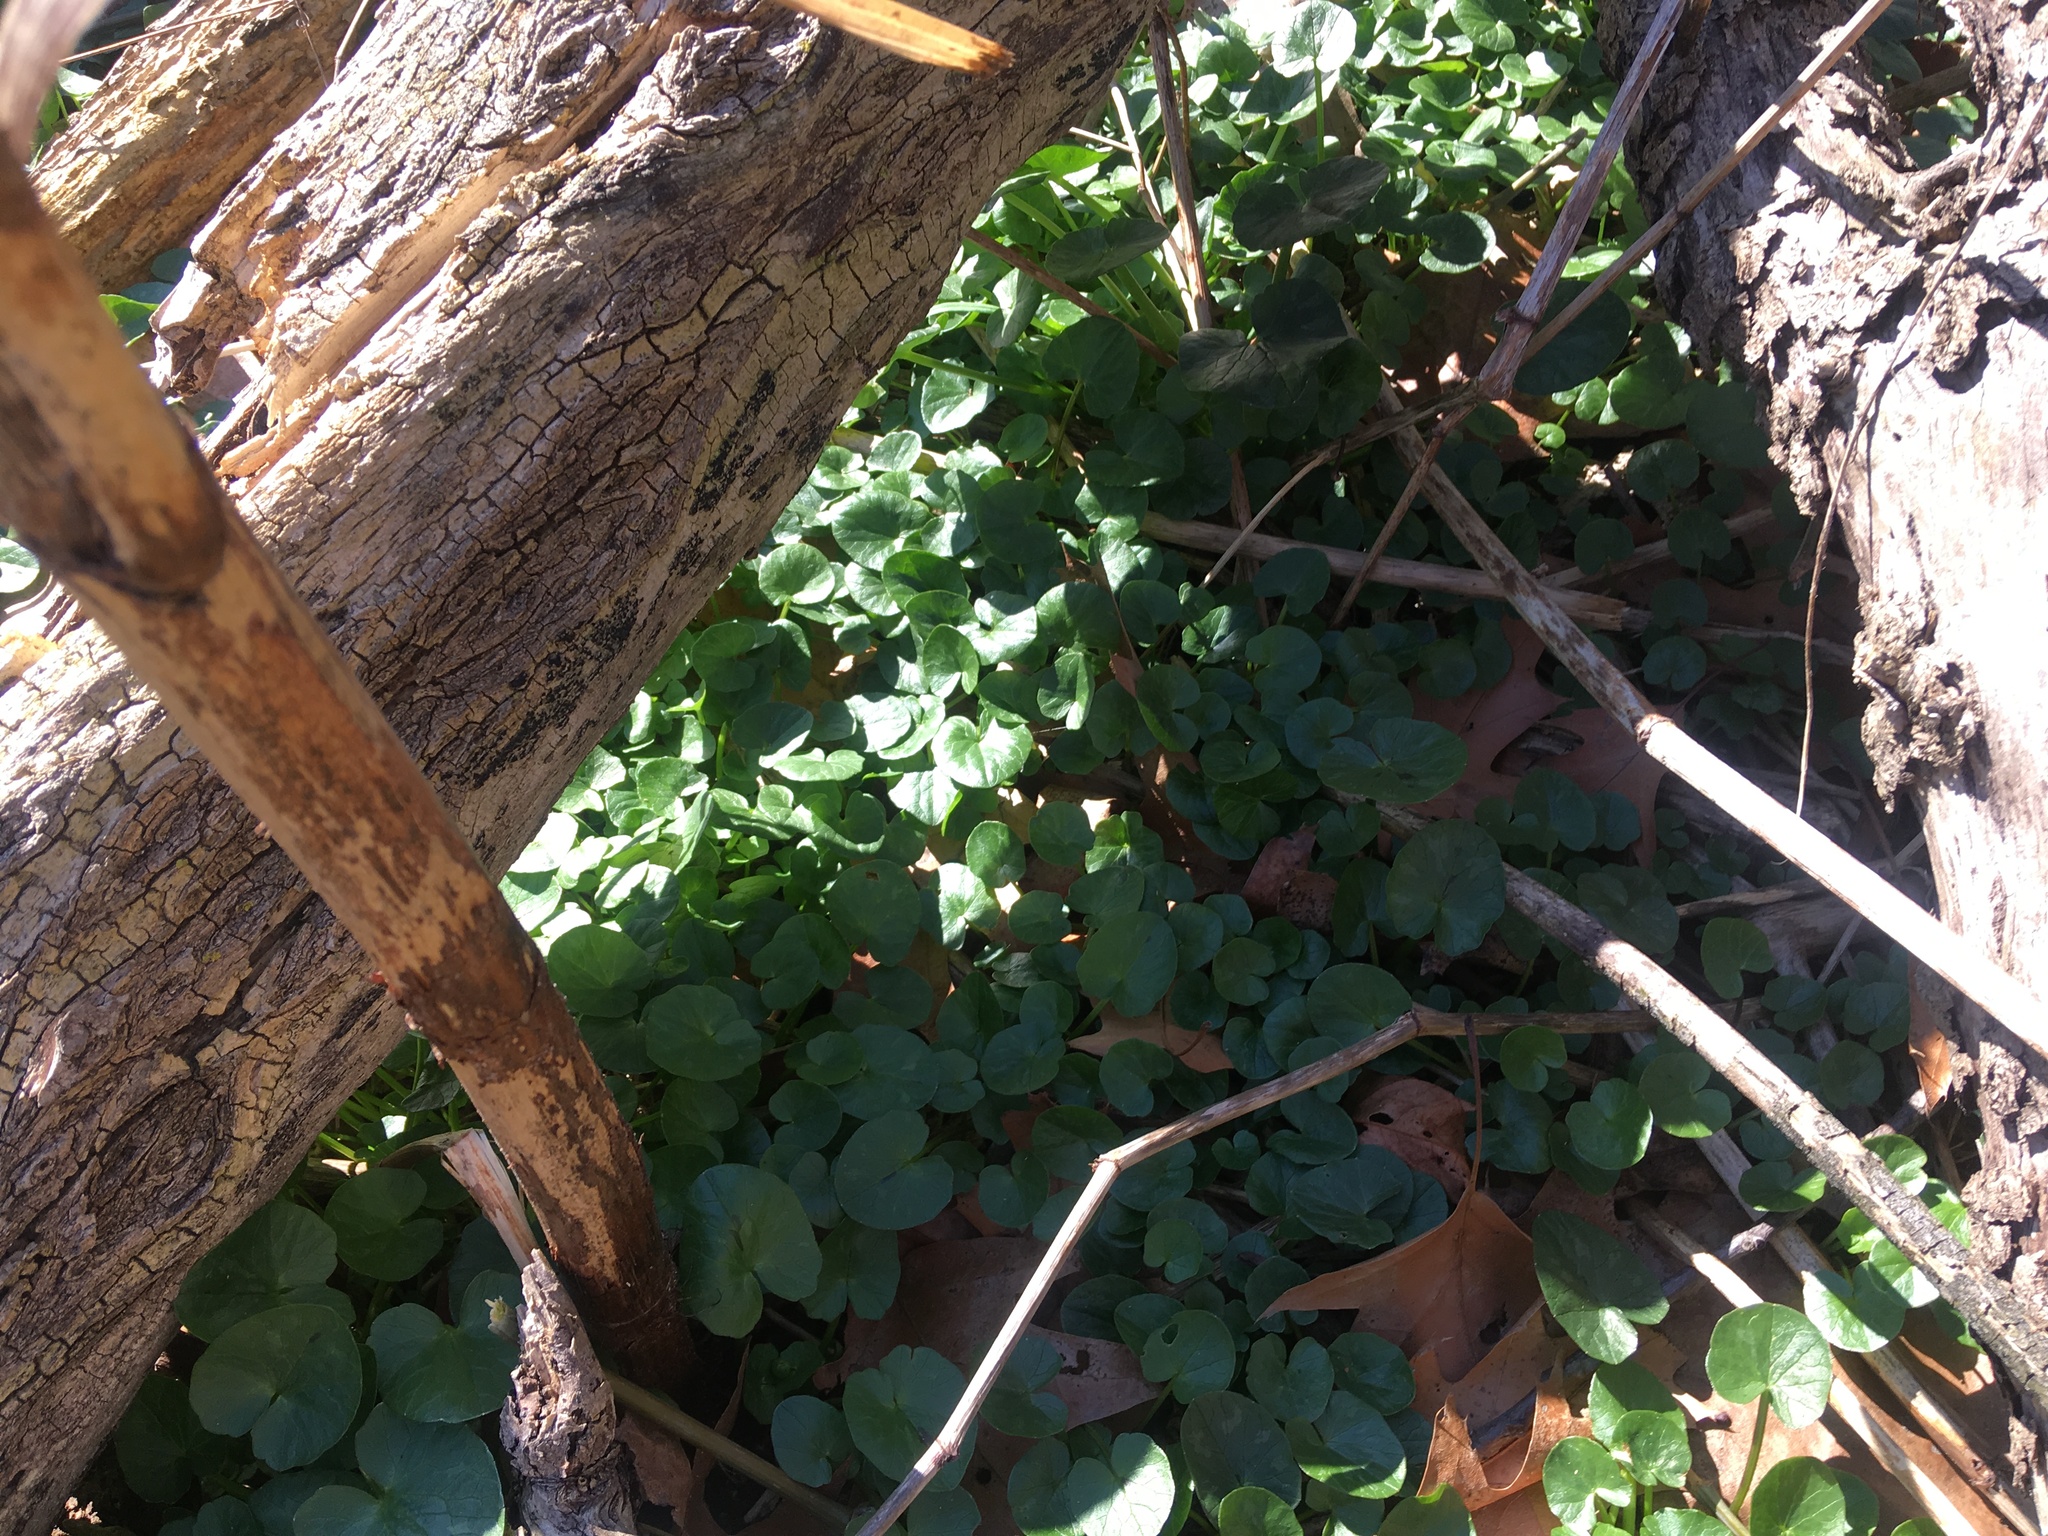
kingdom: Plantae
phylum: Tracheophyta
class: Magnoliopsida
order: Ranunculales
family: Ranunculaceae
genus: Ficaria
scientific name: Ficaria verna
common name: Lesser celandine
